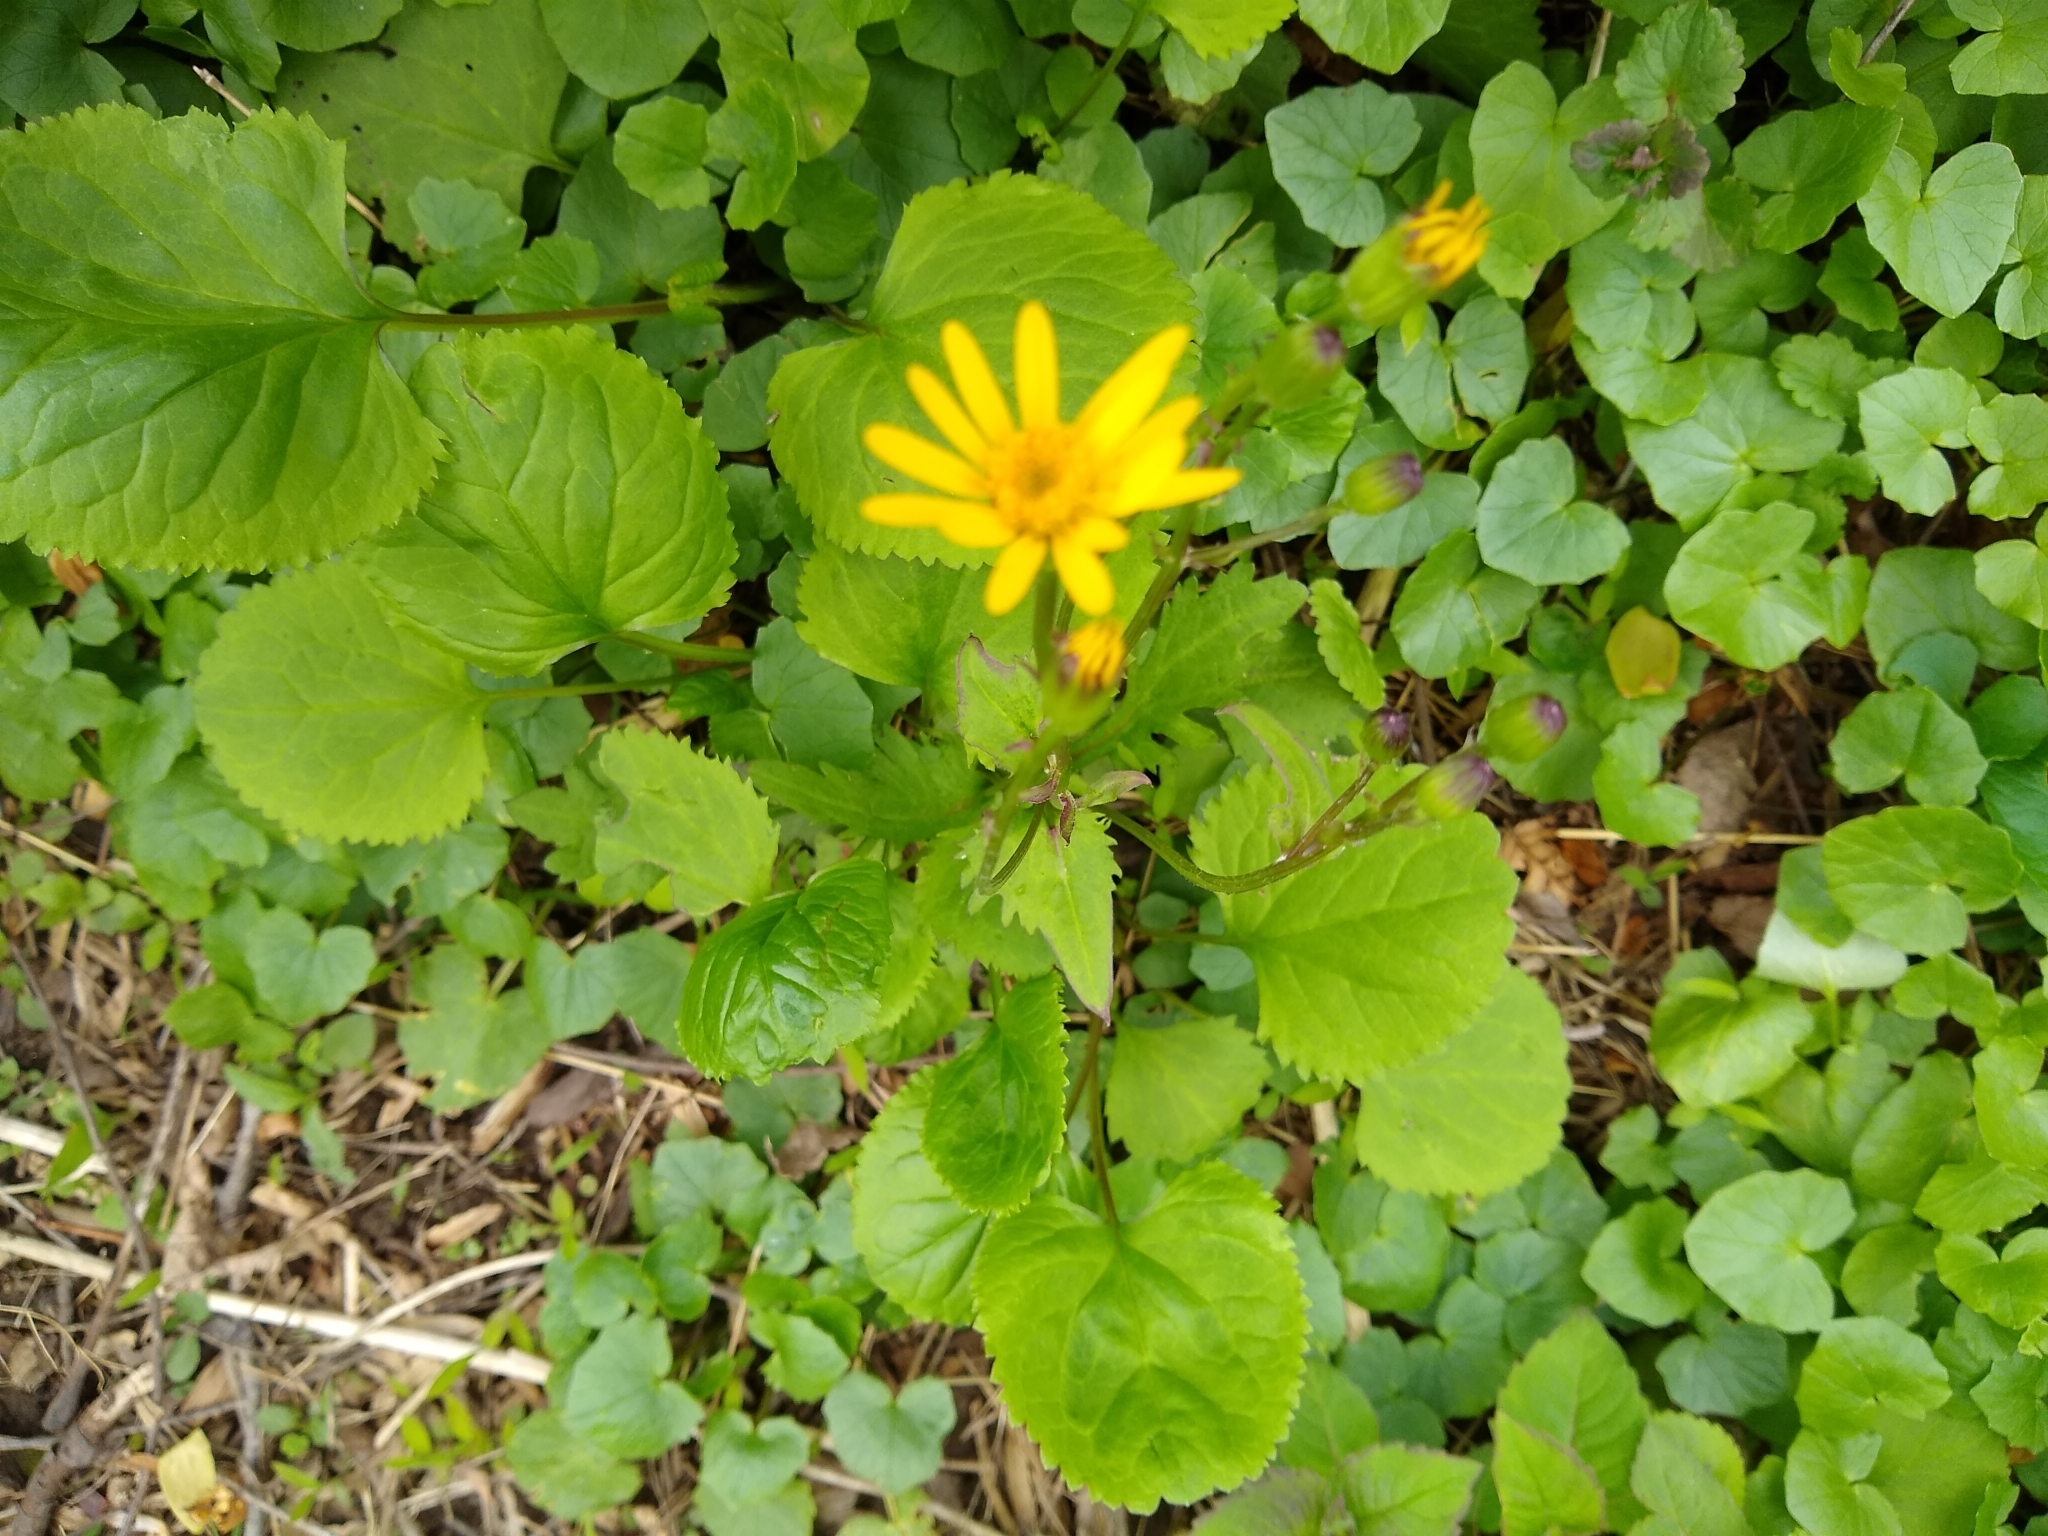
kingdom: Plantae
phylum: Tracheophyta
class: Magnoliopsida
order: Asterales
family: Asteraceae
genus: Packera
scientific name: Packera aurea
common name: Golden groundsel
